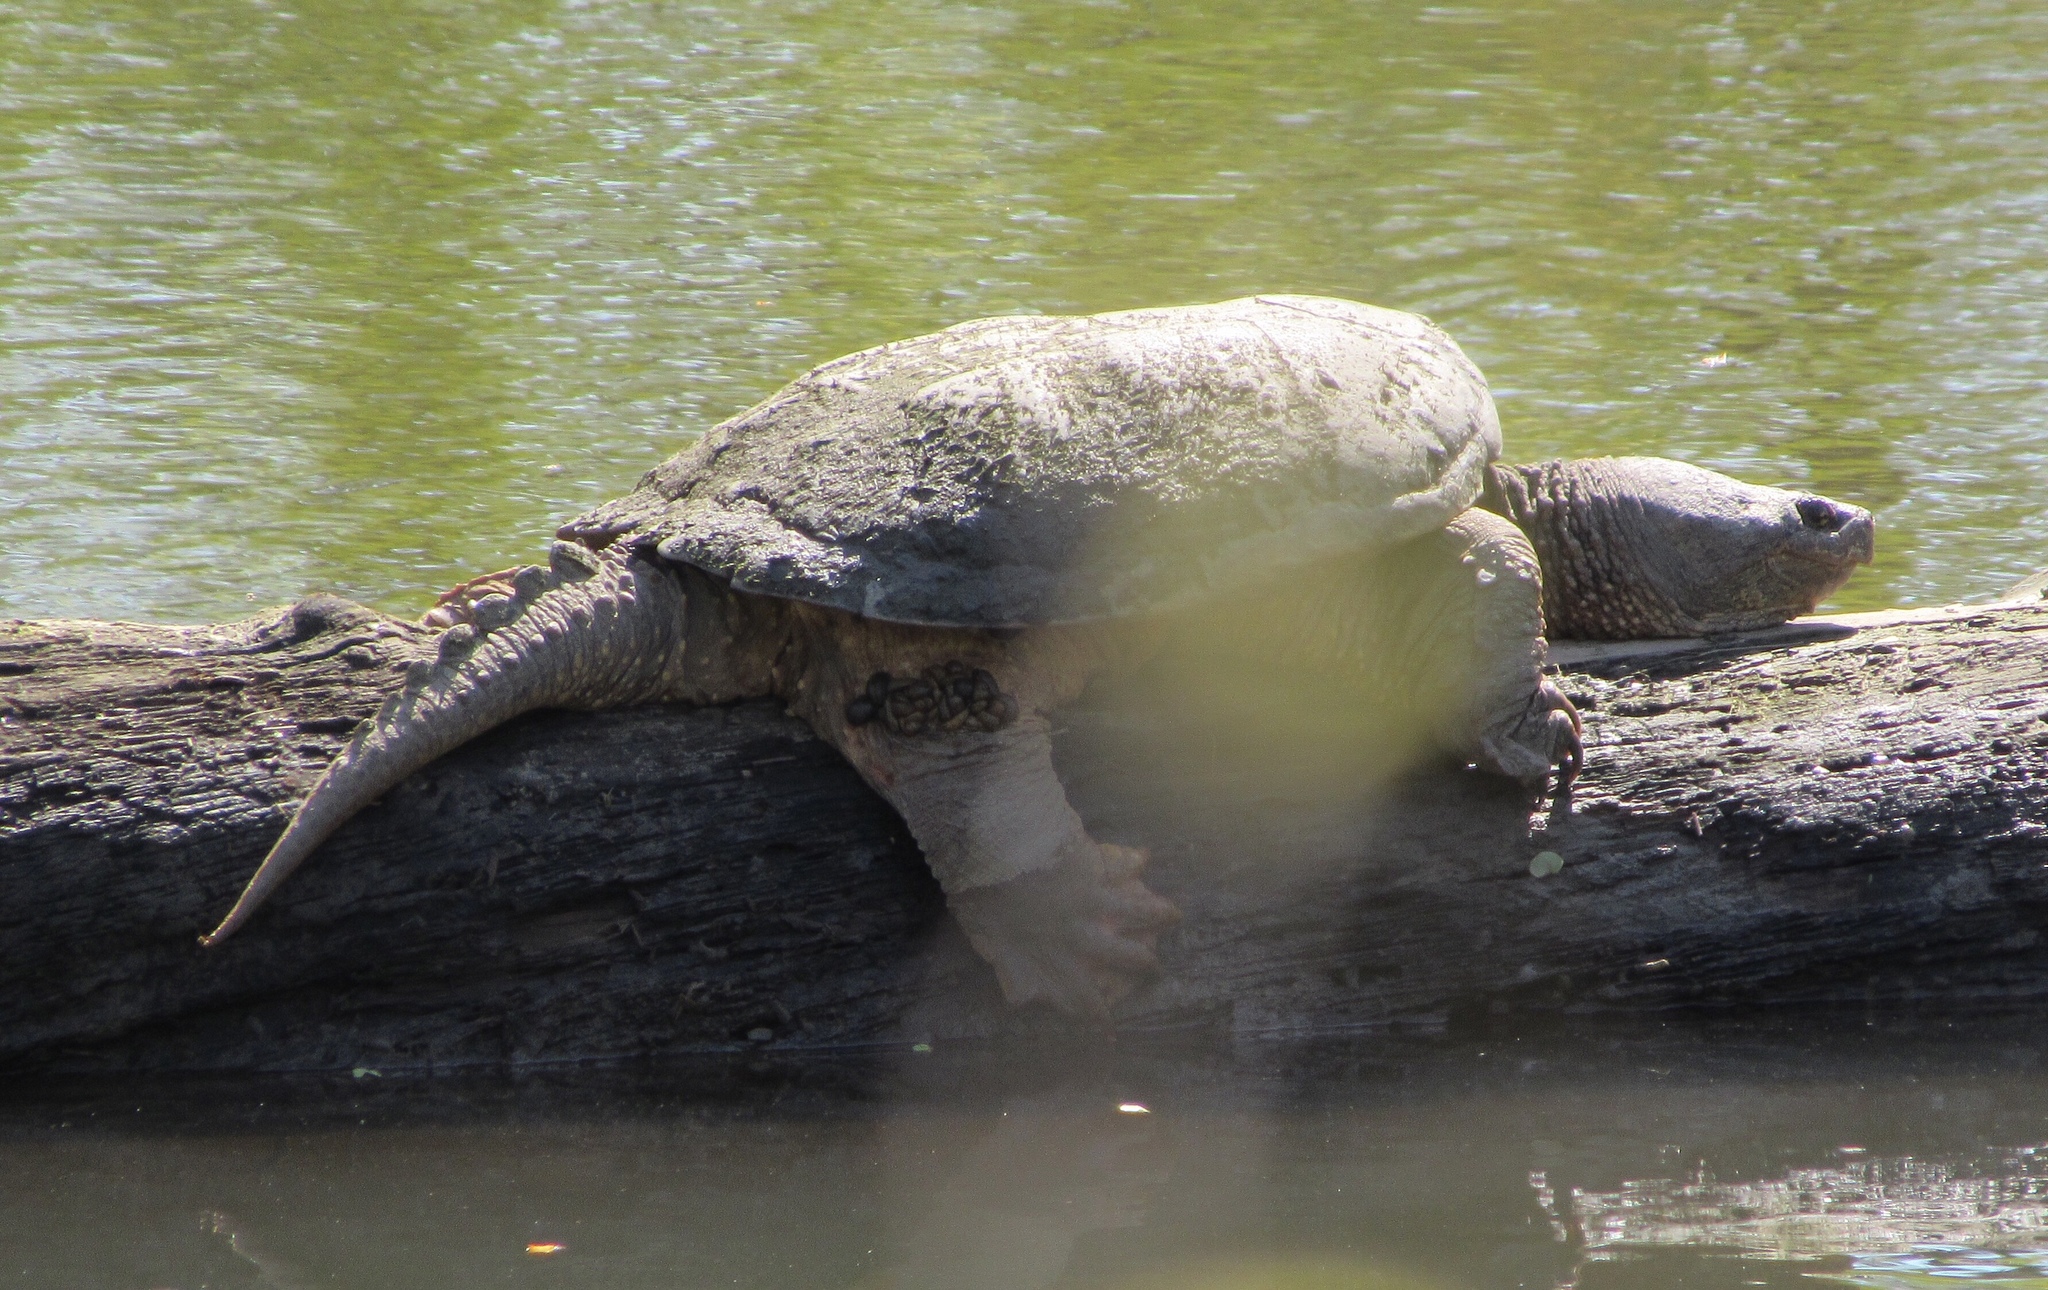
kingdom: Animalia
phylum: Chordata
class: Testudines
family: Chelydridae
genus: Chelydra
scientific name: Chelydra serpentina
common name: Common snapping turtle
